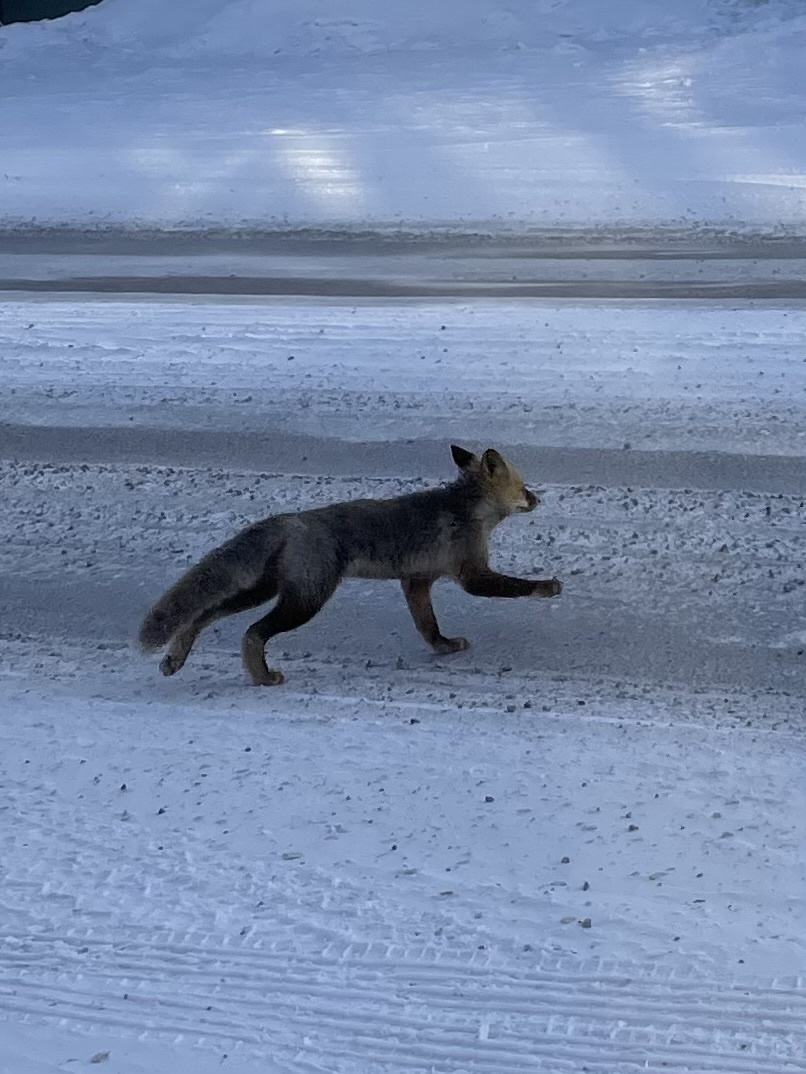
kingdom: Animalia
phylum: Chordata
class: Mammalia
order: Carnivora
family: Canidae
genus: Vulpes
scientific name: Vulpes vulpes
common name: Red fox
